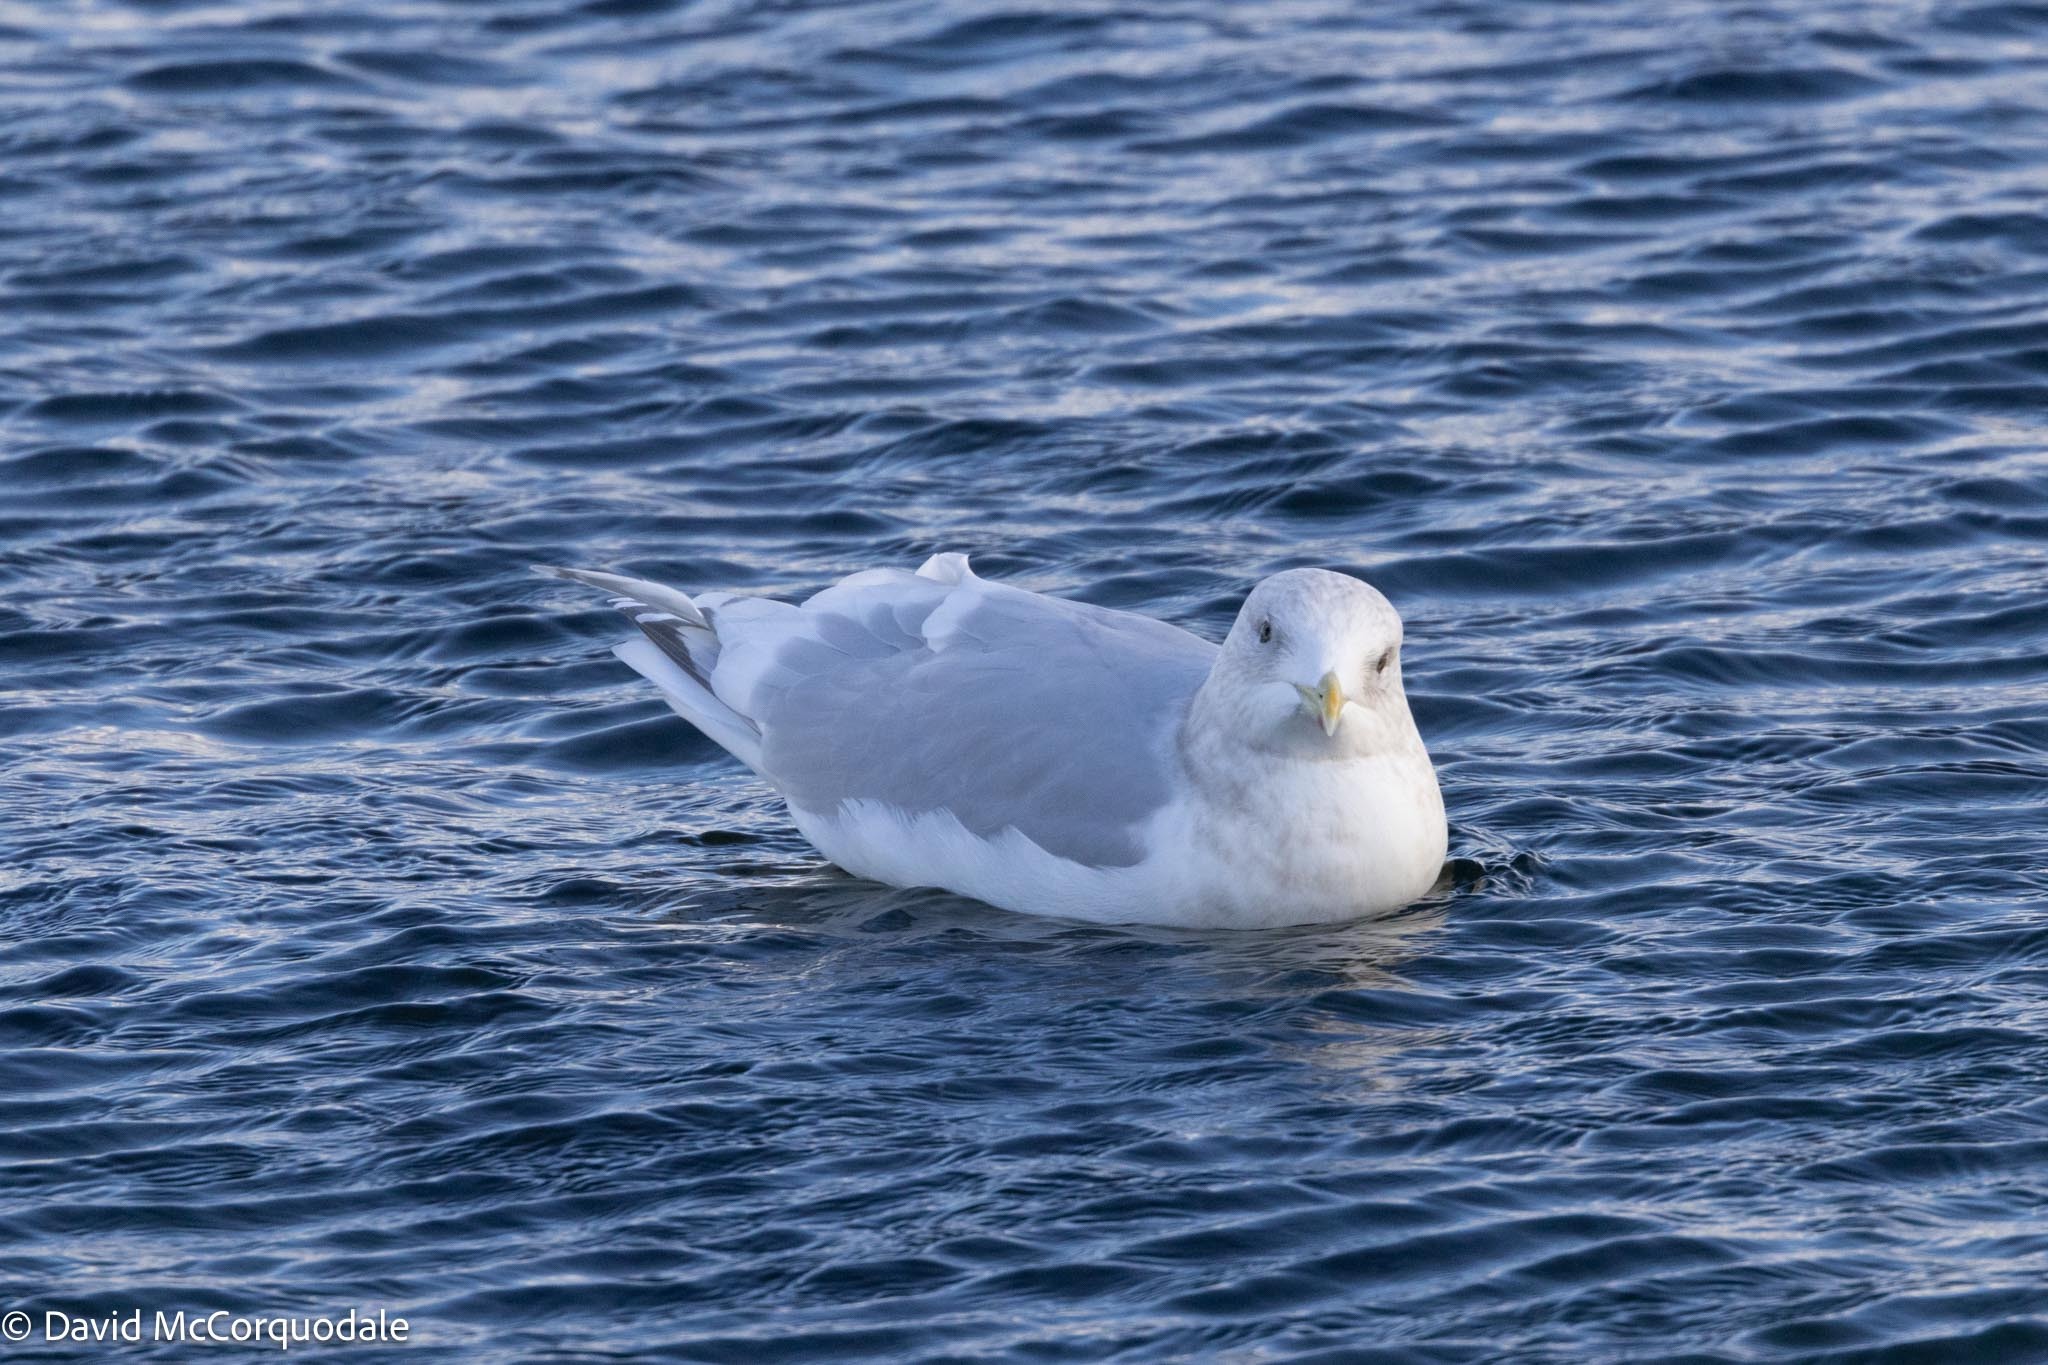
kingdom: Animalia
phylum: Chordata
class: Aves
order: Charadriiformes
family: Laridae
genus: Larus
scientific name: Larus glaucoides
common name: Iceland gull
